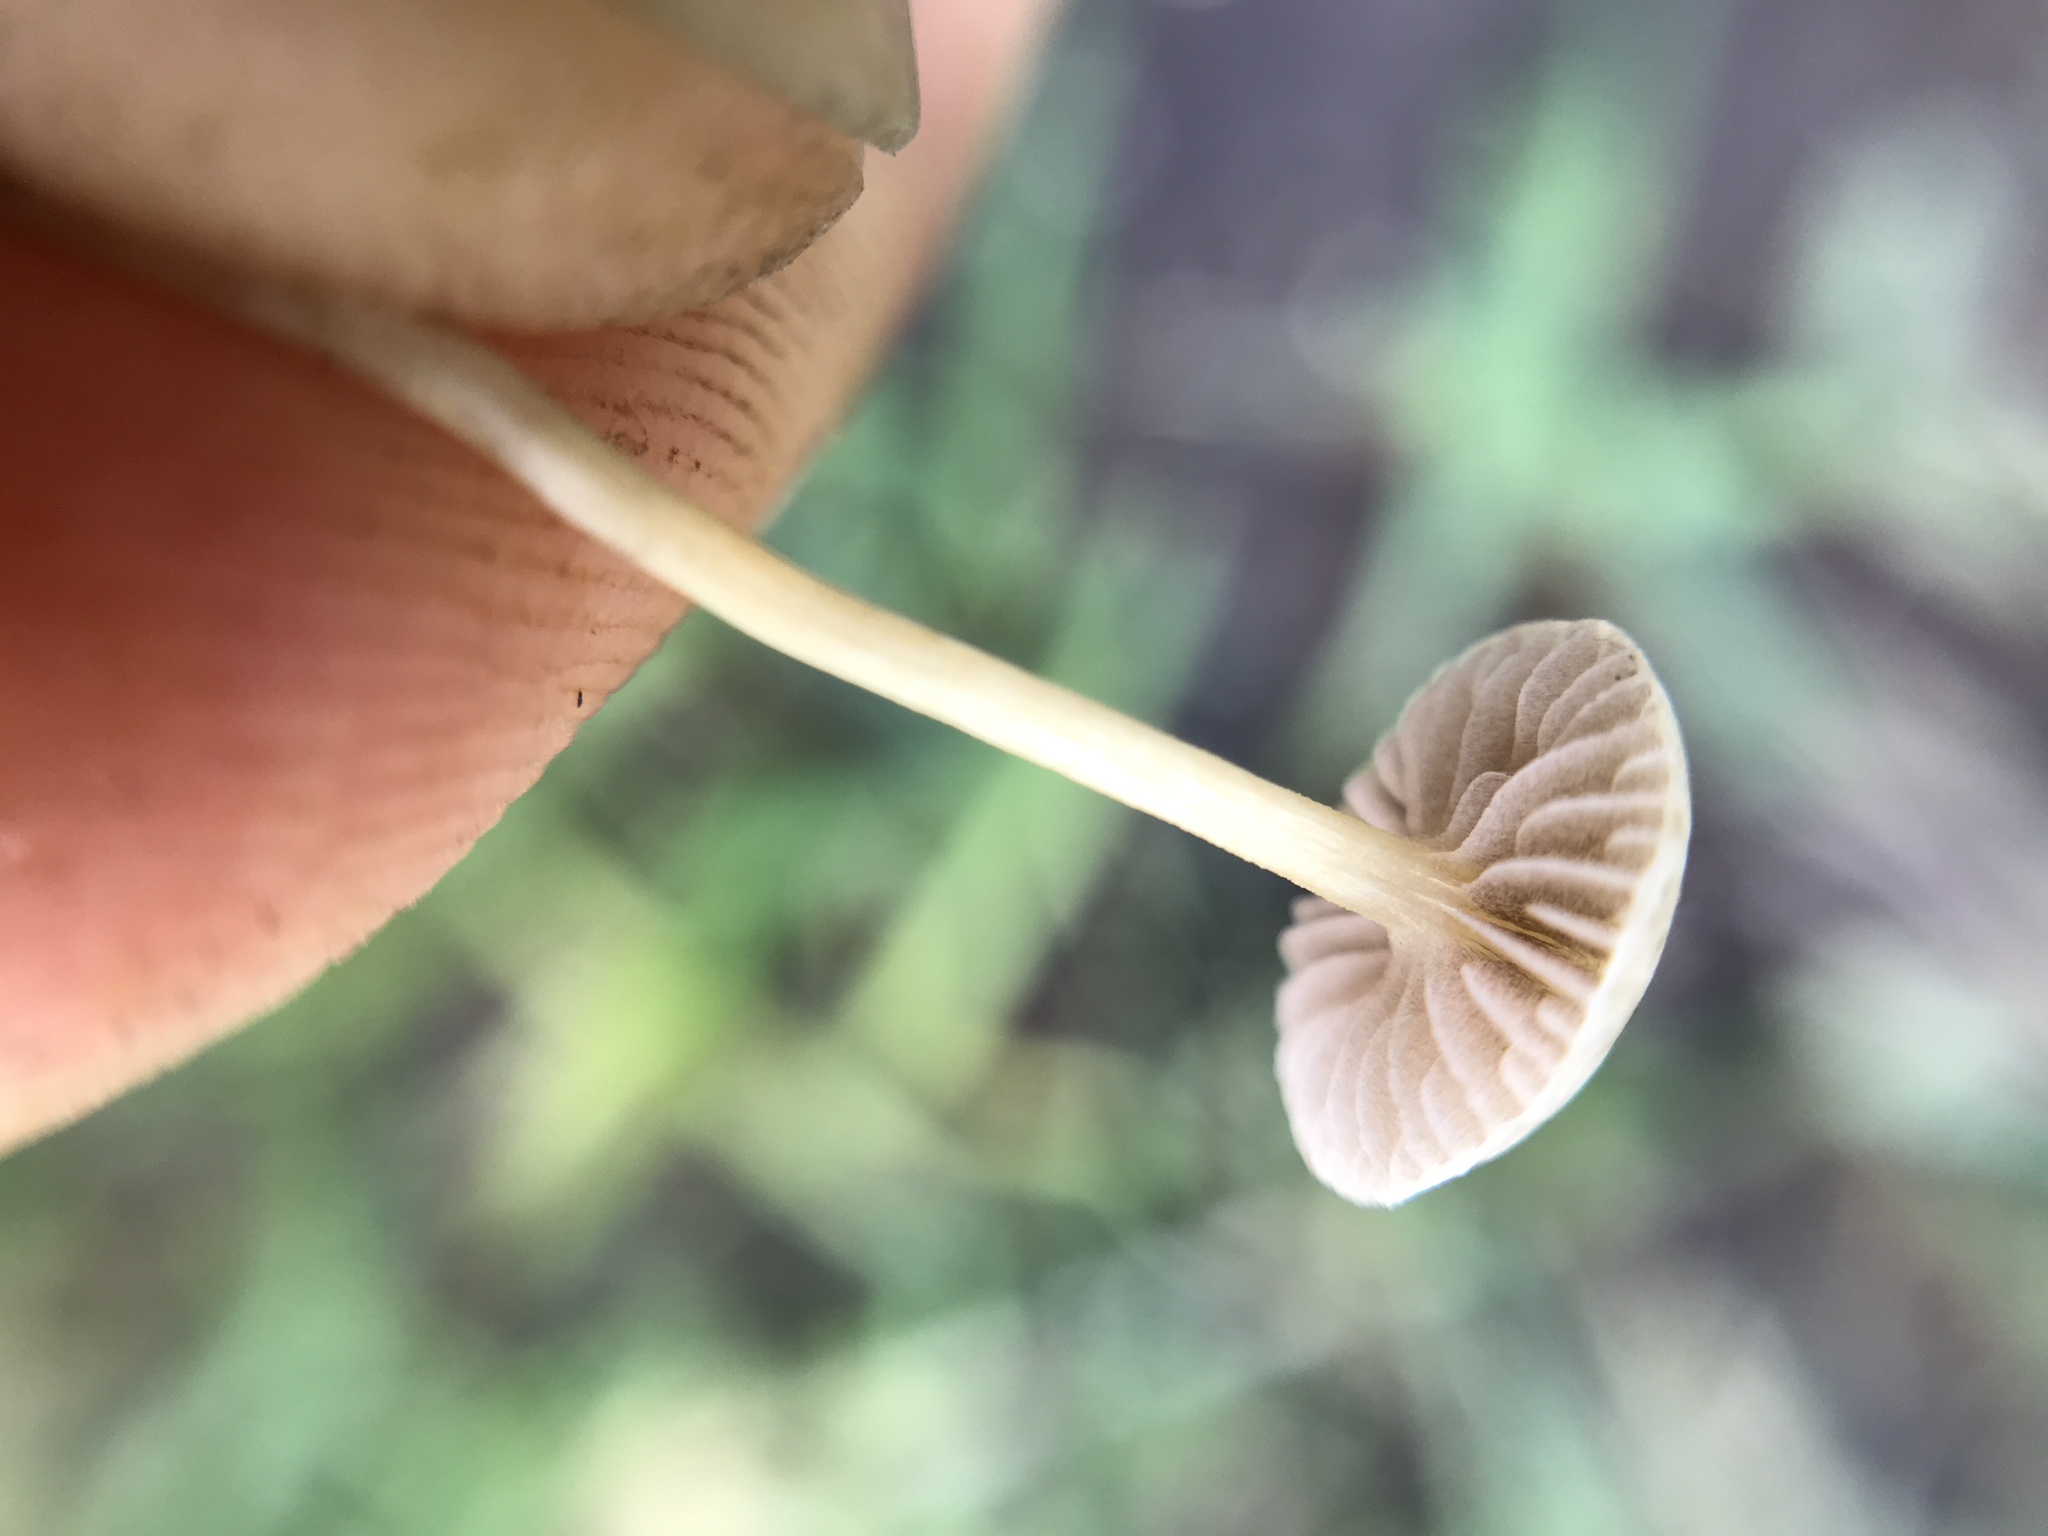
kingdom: Fungi
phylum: Basidiomycota
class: Agaricomycetes
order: Agaricales
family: Strophariaceae
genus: Agrocybe
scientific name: Agrocybe pediades
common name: Common fieldcap
